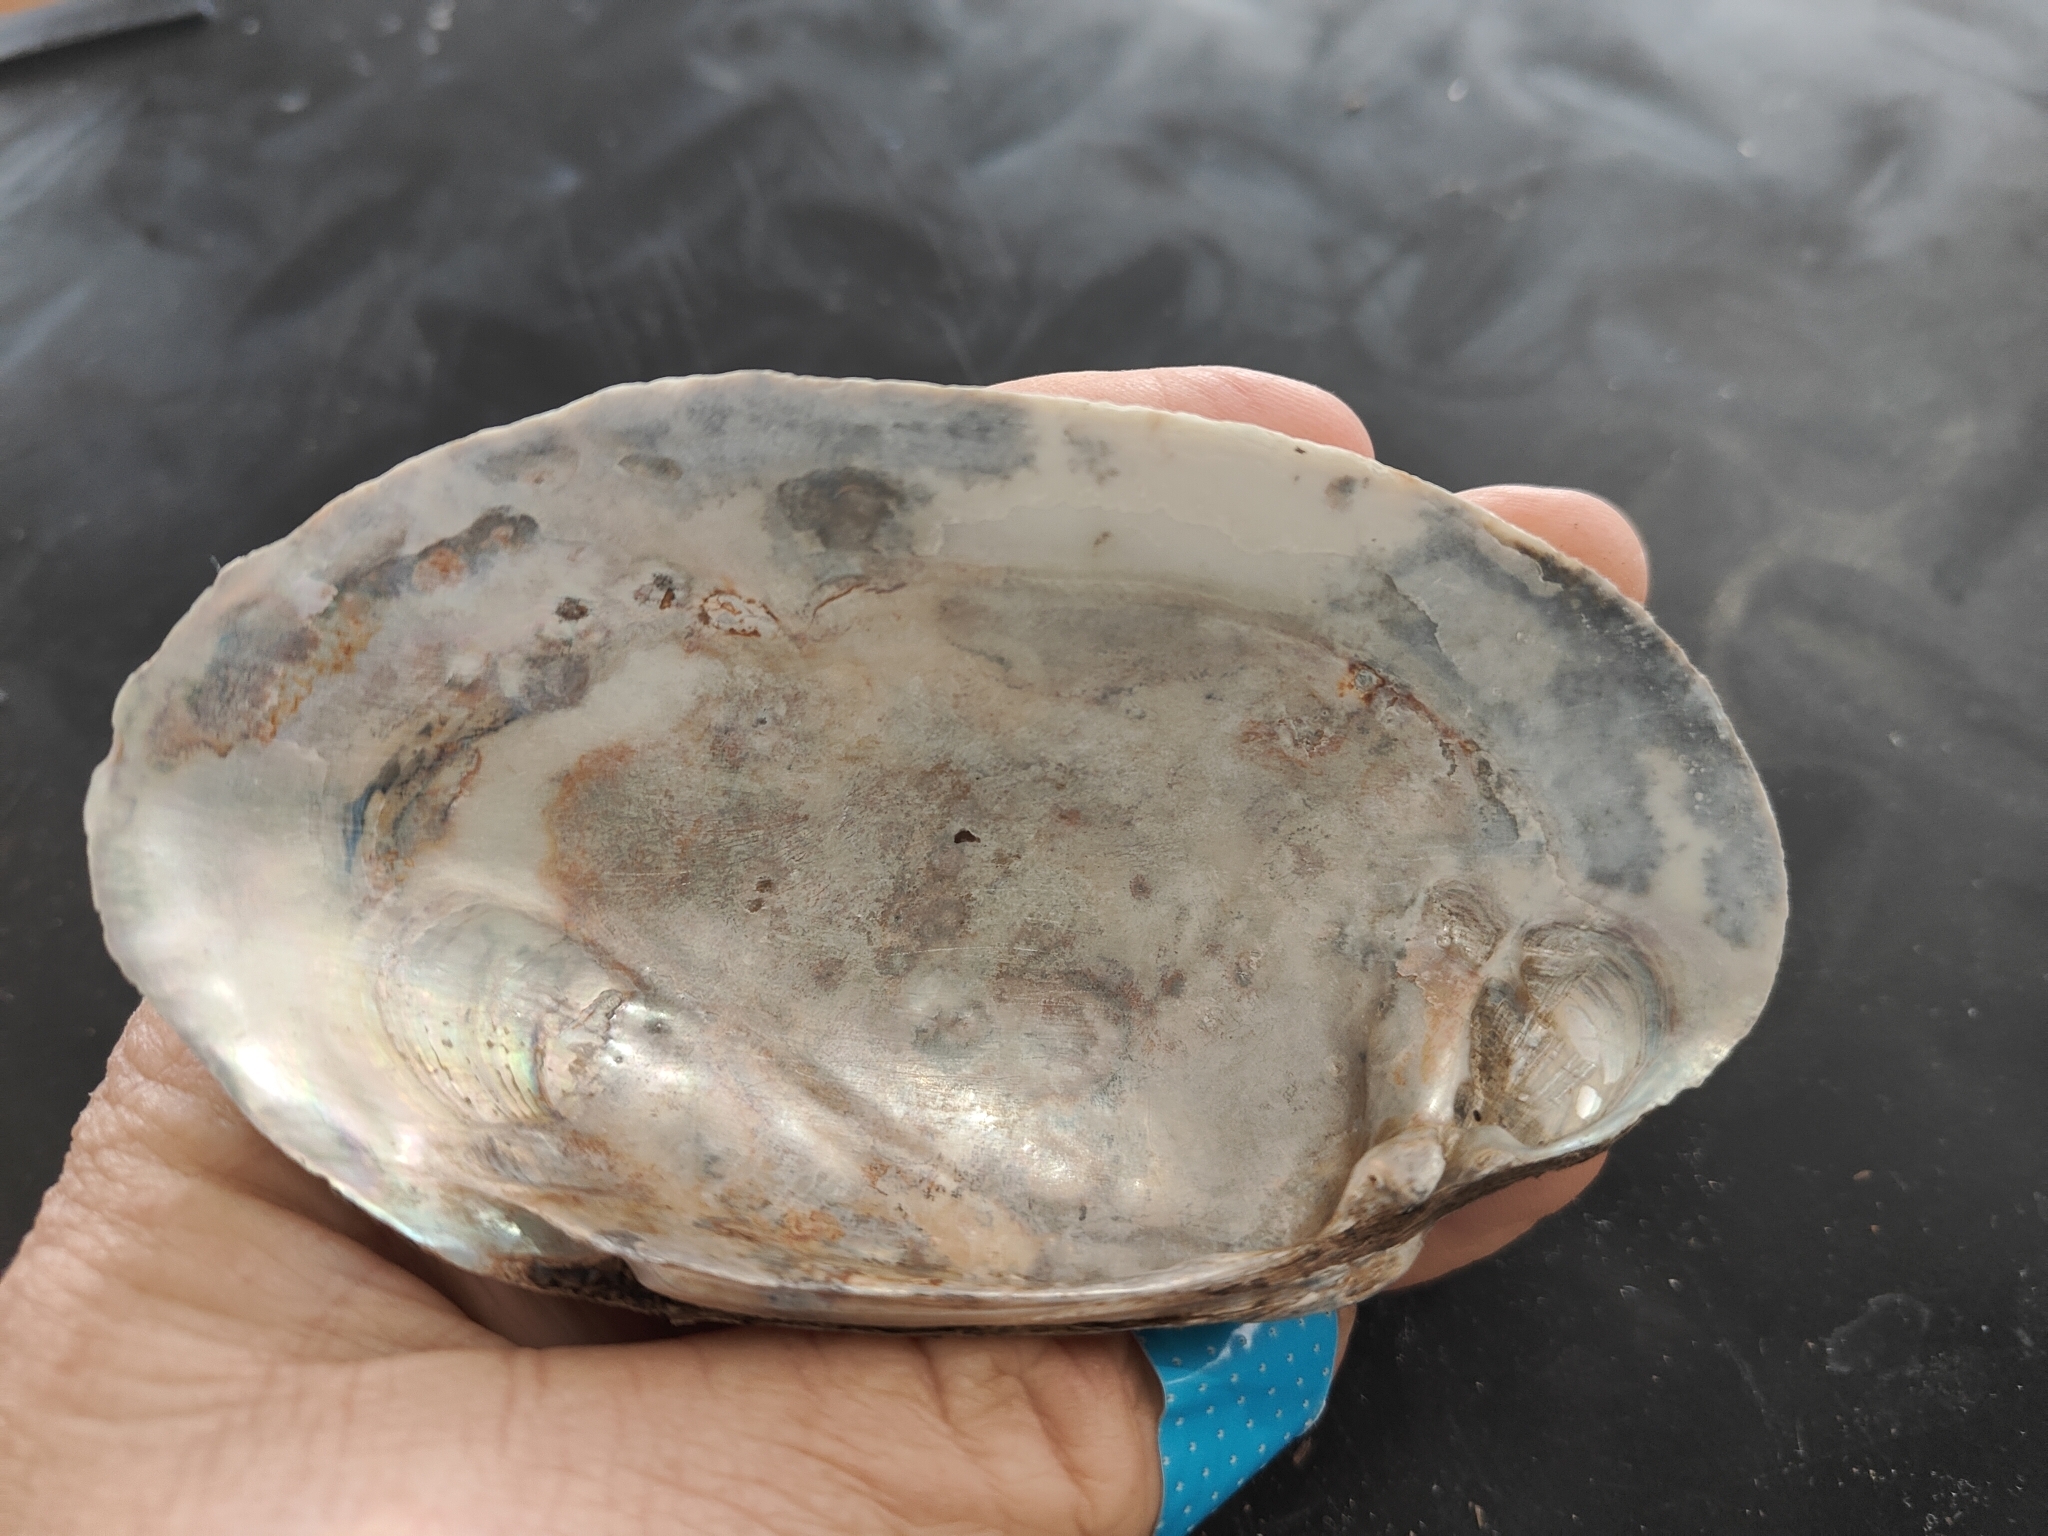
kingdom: Animalia
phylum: Mollusca
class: Bivalvia
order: Unionida
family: Unionidae
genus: Lampsilis
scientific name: Lampsilis siliquoidea
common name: Fatmucket
